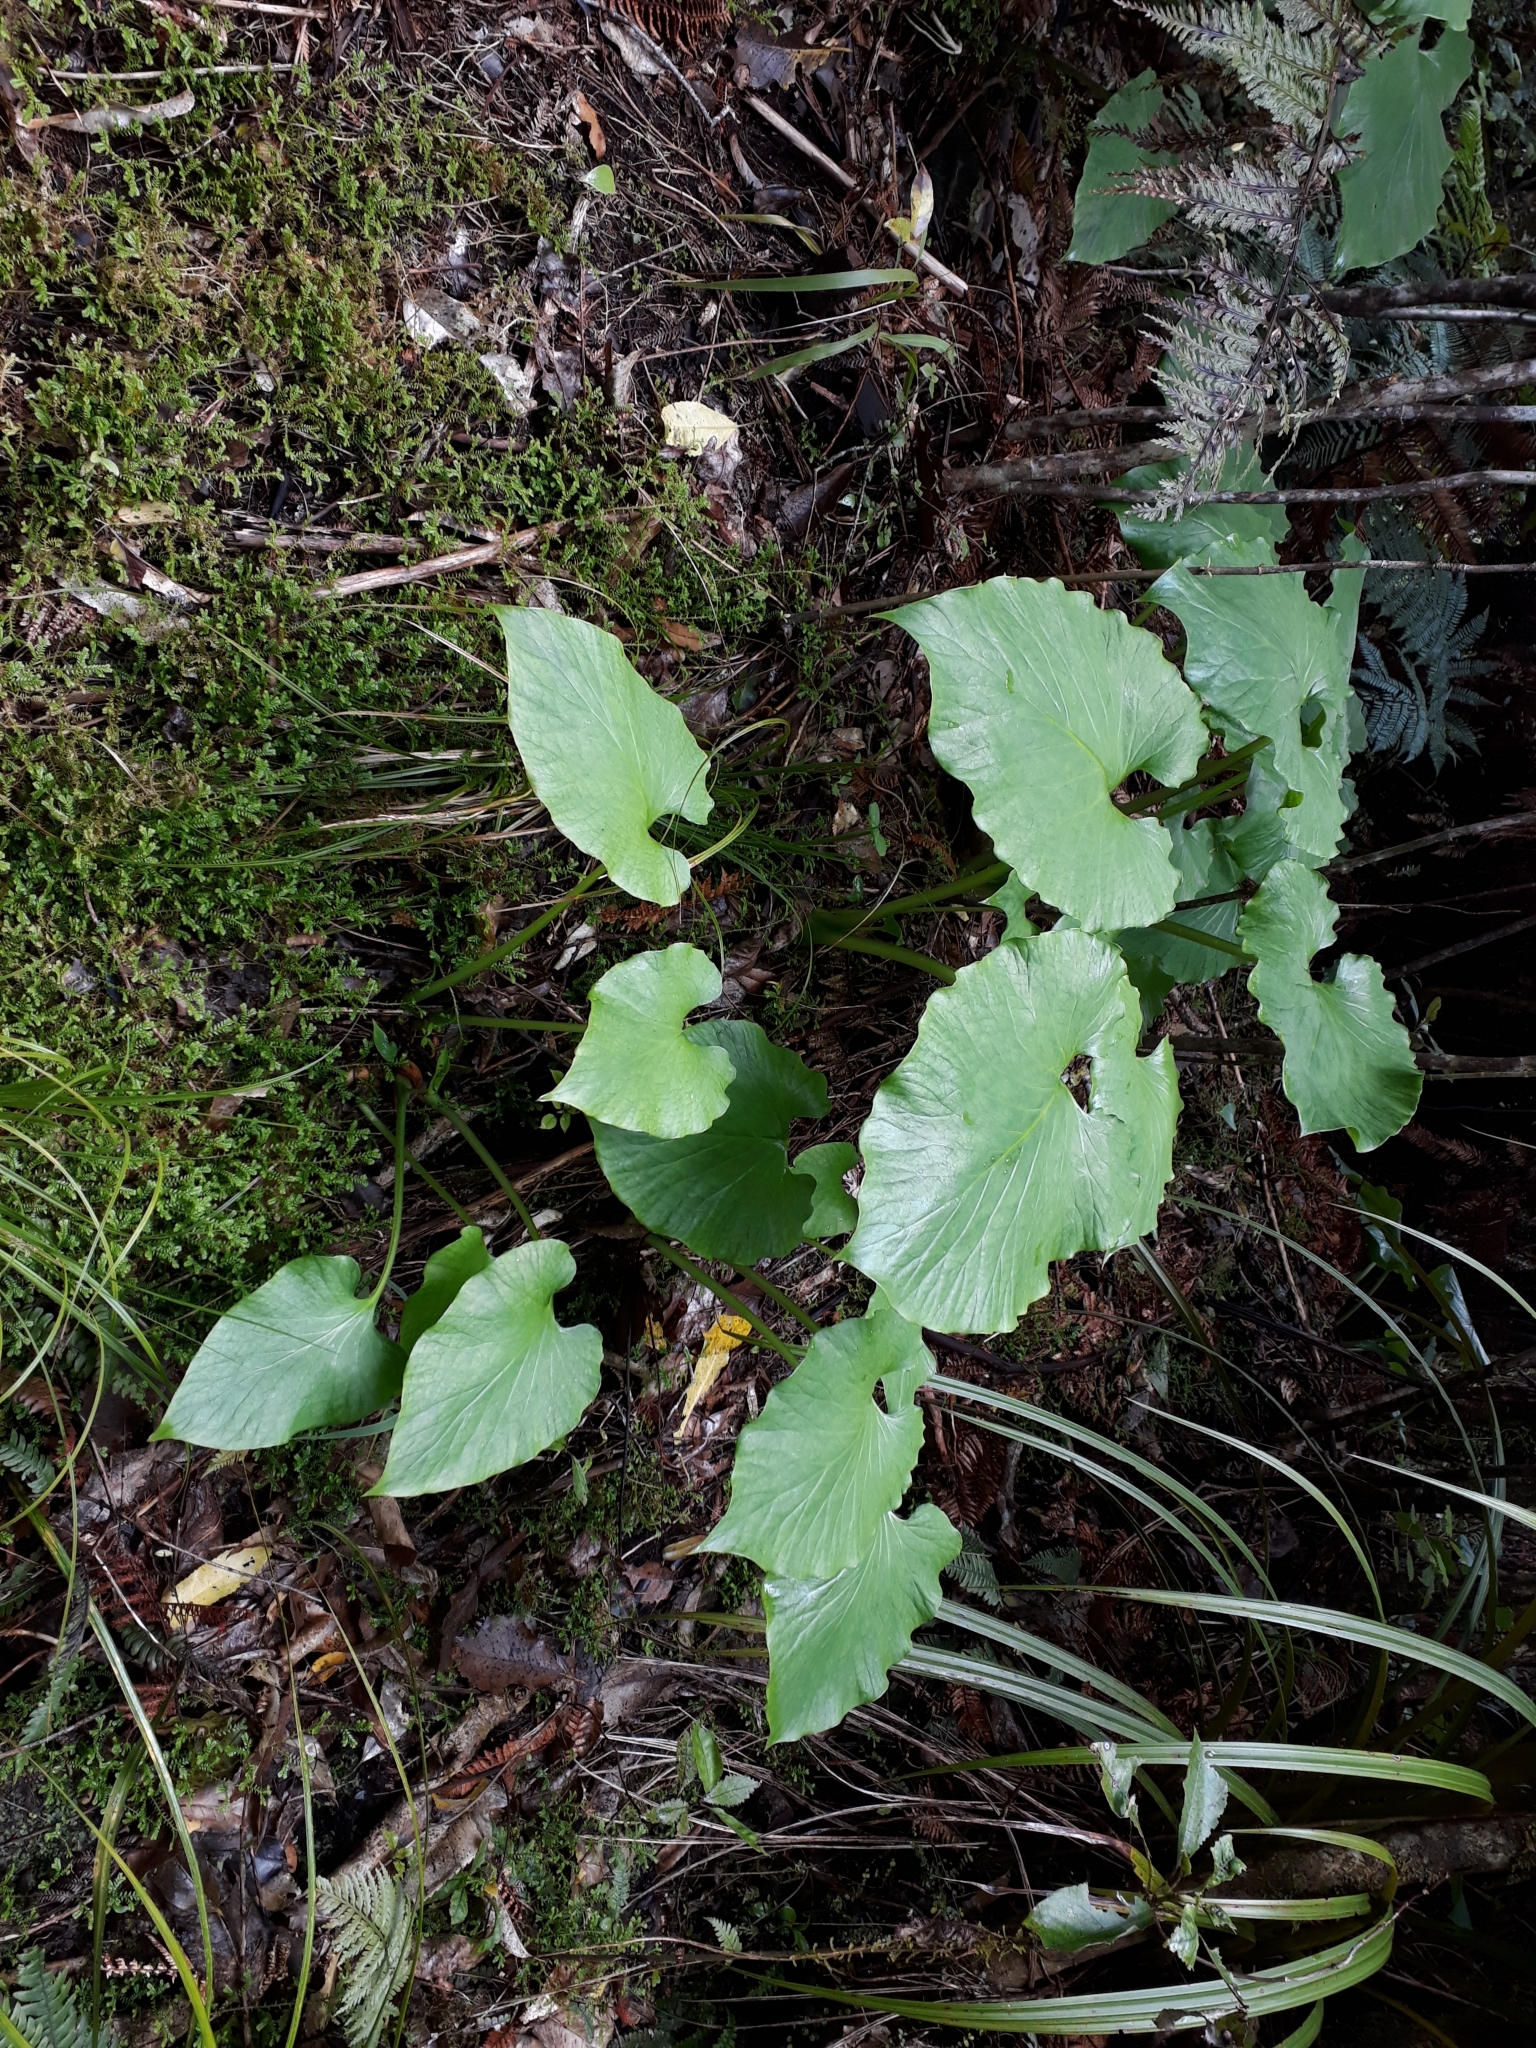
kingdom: Plantae
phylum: Tracheophyta
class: Liliopsida
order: Liliales
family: Liliaceae
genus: Cardiocrinum
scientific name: Cardiocrinum giganteum
